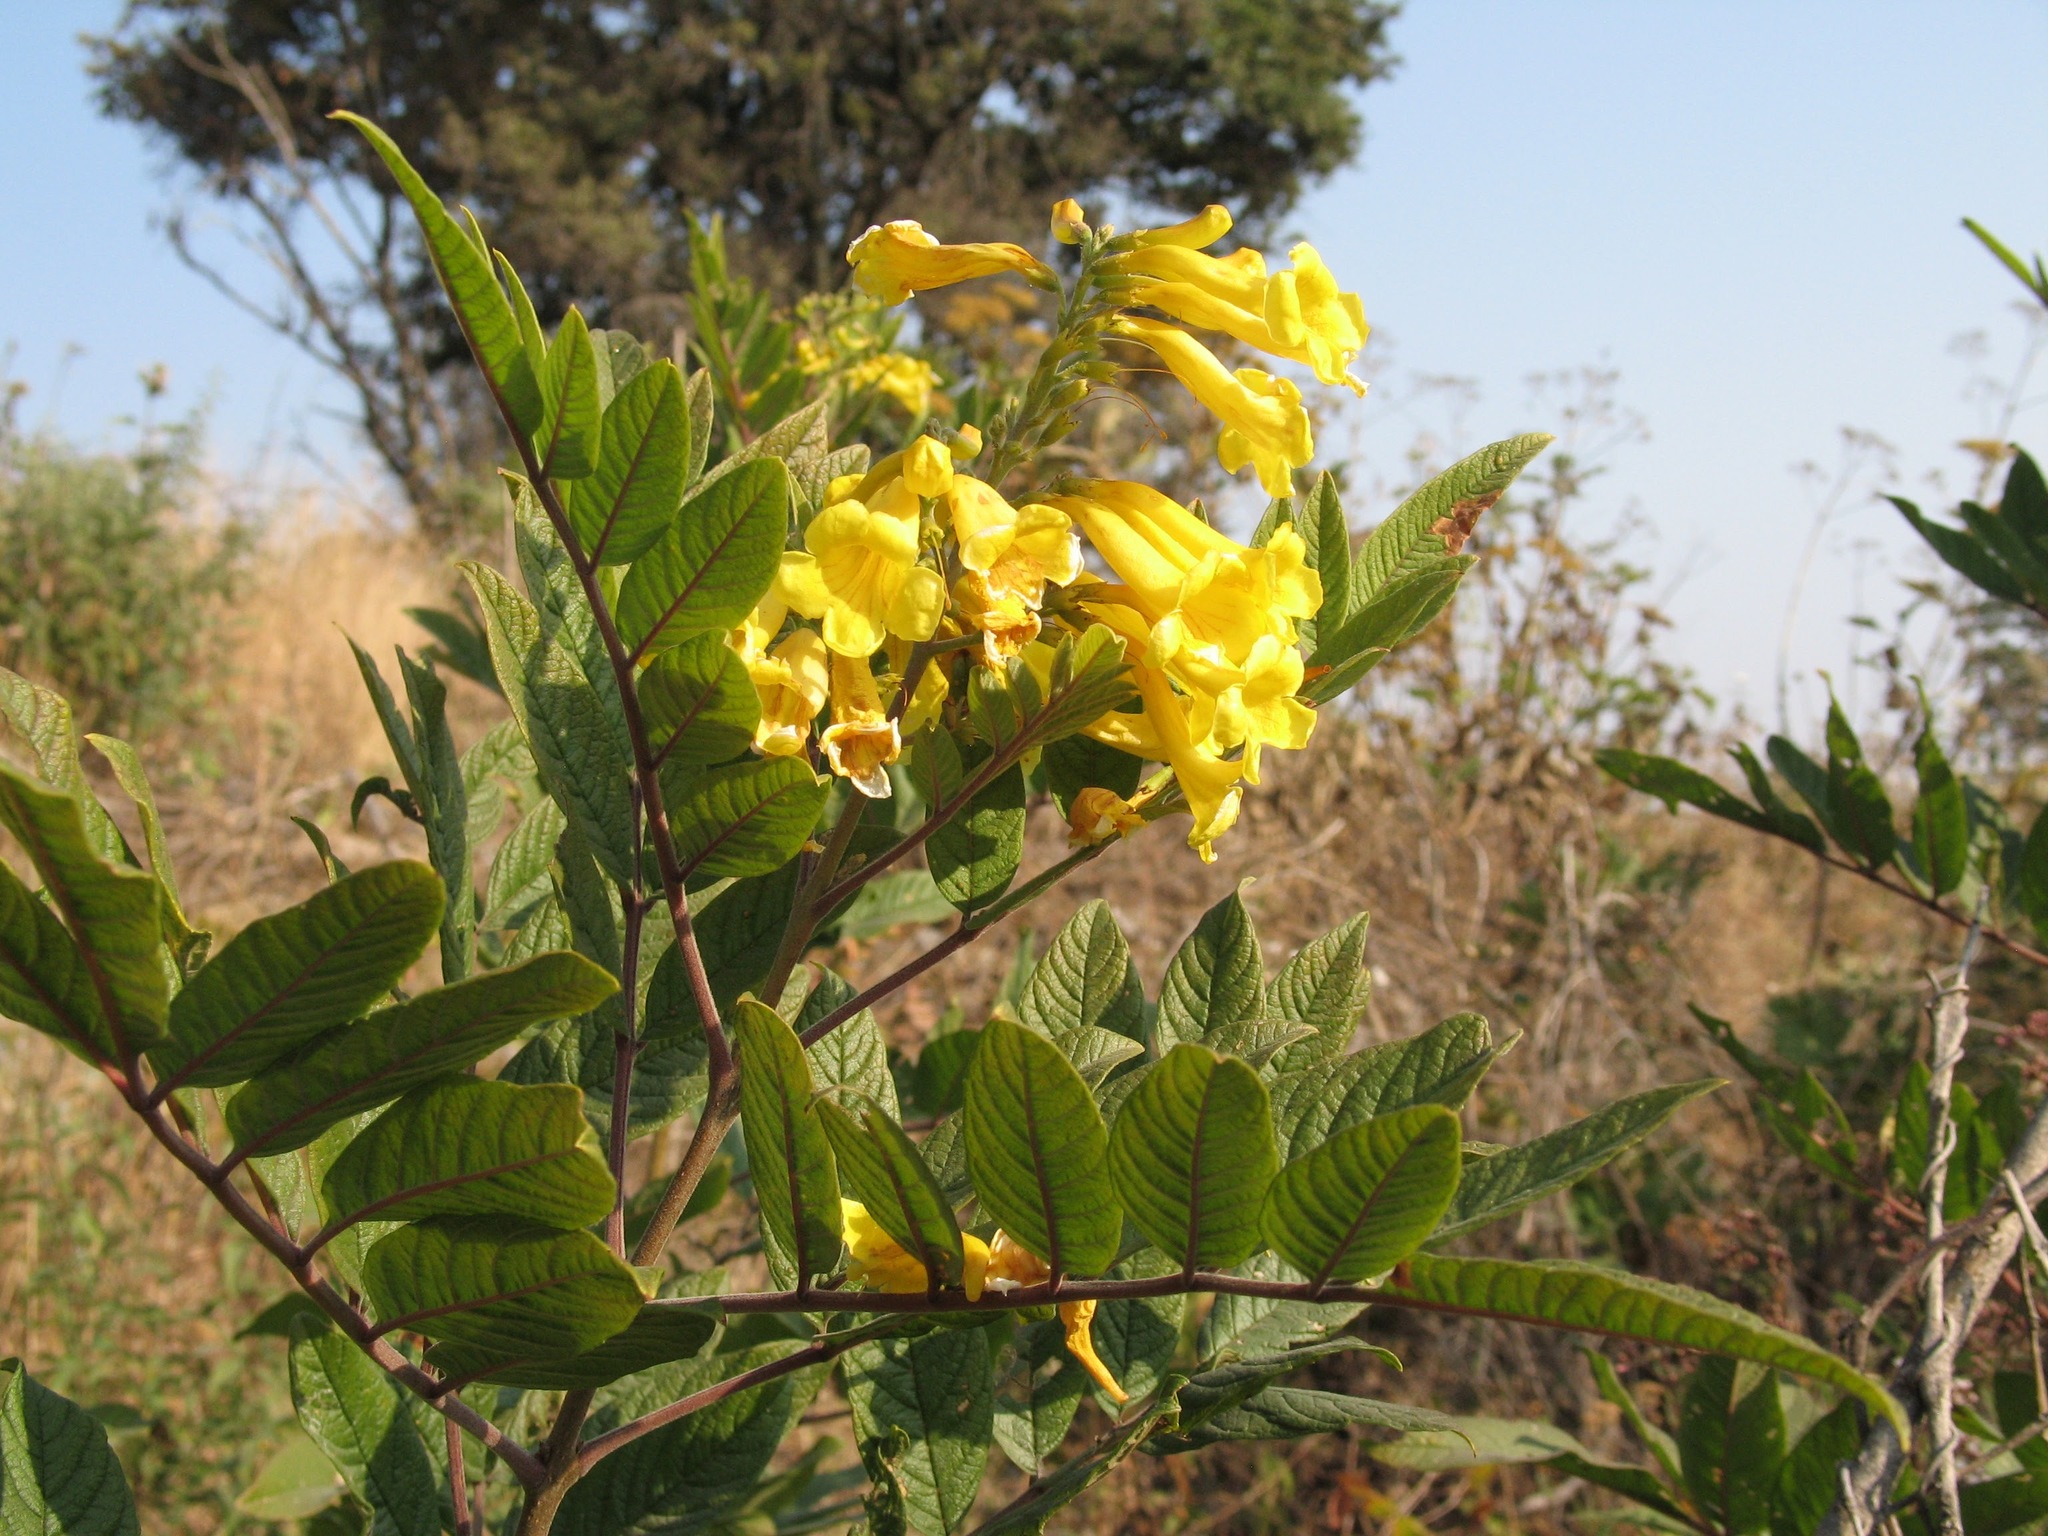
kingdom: Plantae
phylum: Tracheophyta
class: Magnoliopsida
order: Lamiales
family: Bignoniaceae
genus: Tecoma
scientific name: Tecoma stans
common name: Yellow trumpetbush
